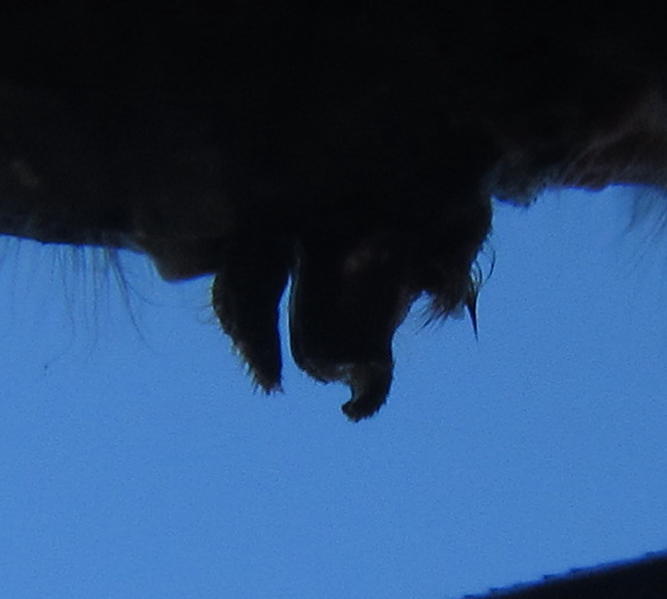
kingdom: Animalia
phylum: Arthropoda
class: Insecta
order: Odonata
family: Libellulidae
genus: Trithemis
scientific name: Trithemis dorsalis
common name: Highland dropwing
